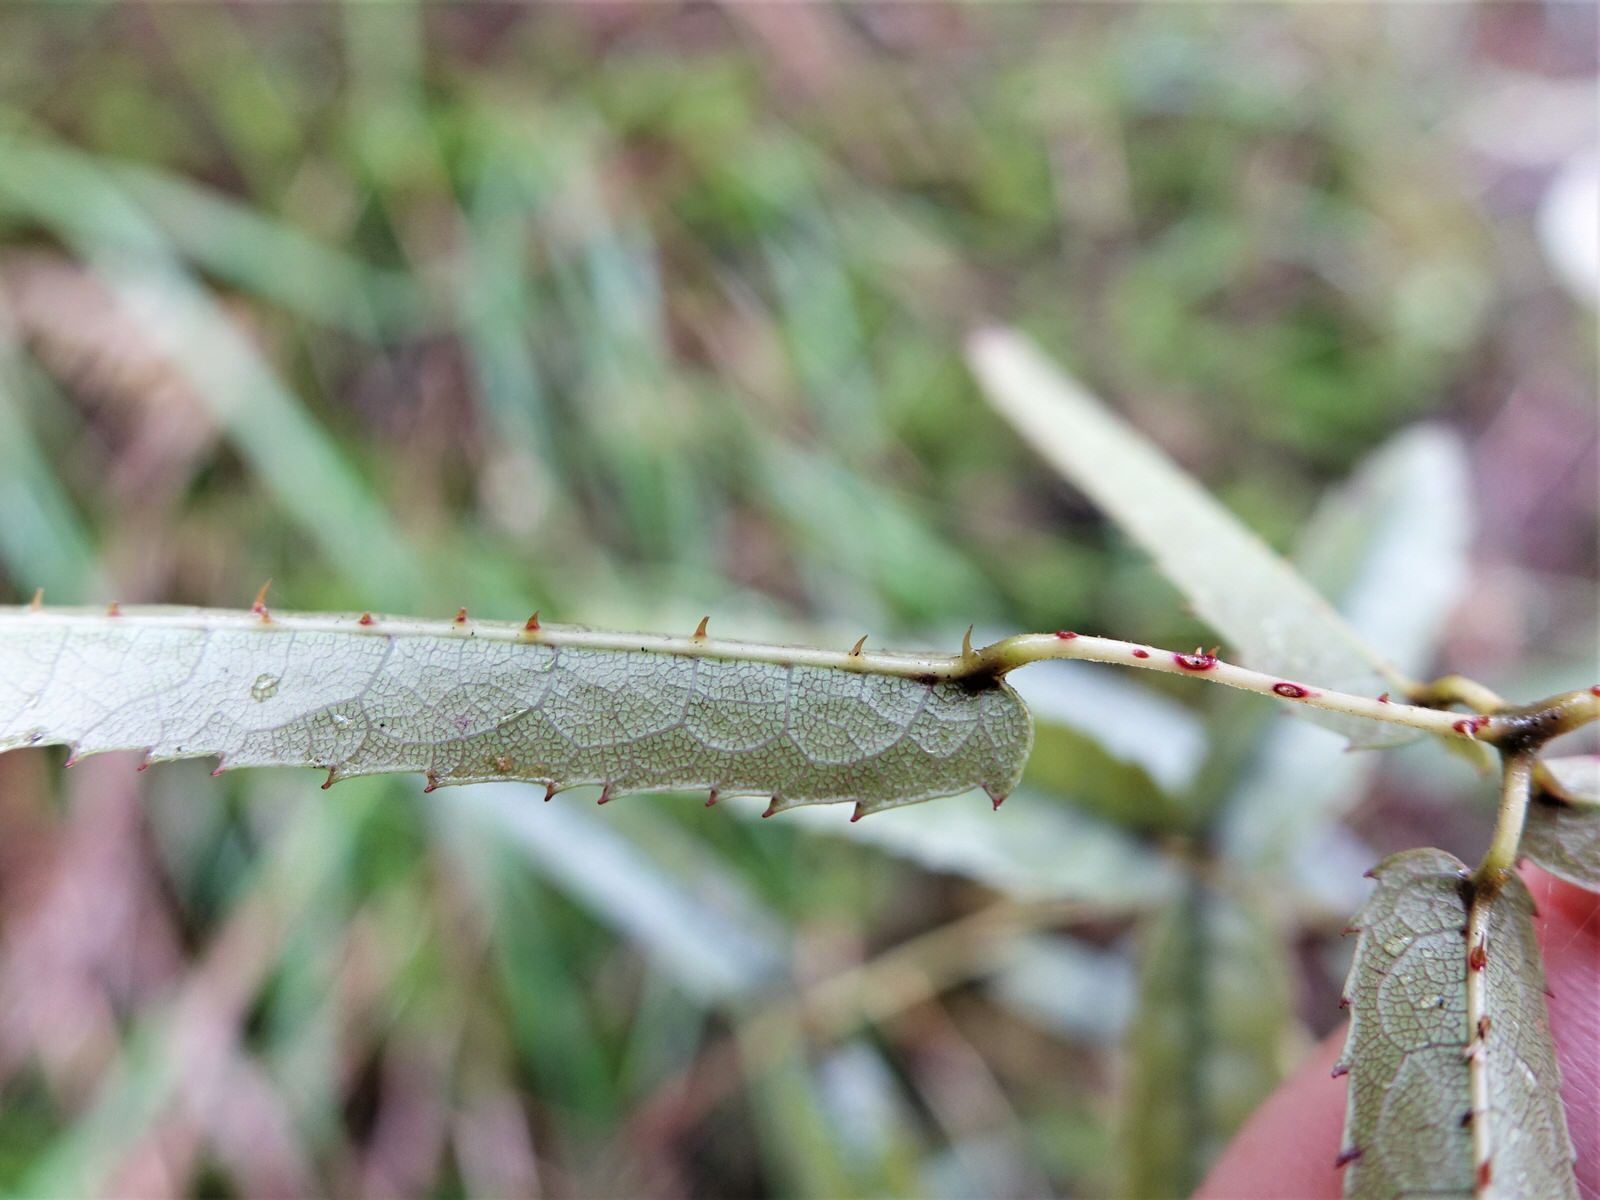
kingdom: Plantae
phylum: Tracheophyta
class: Magnoliopsida
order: Rosales
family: Rosaceae
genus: Rubus
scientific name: Rubus cissoides
